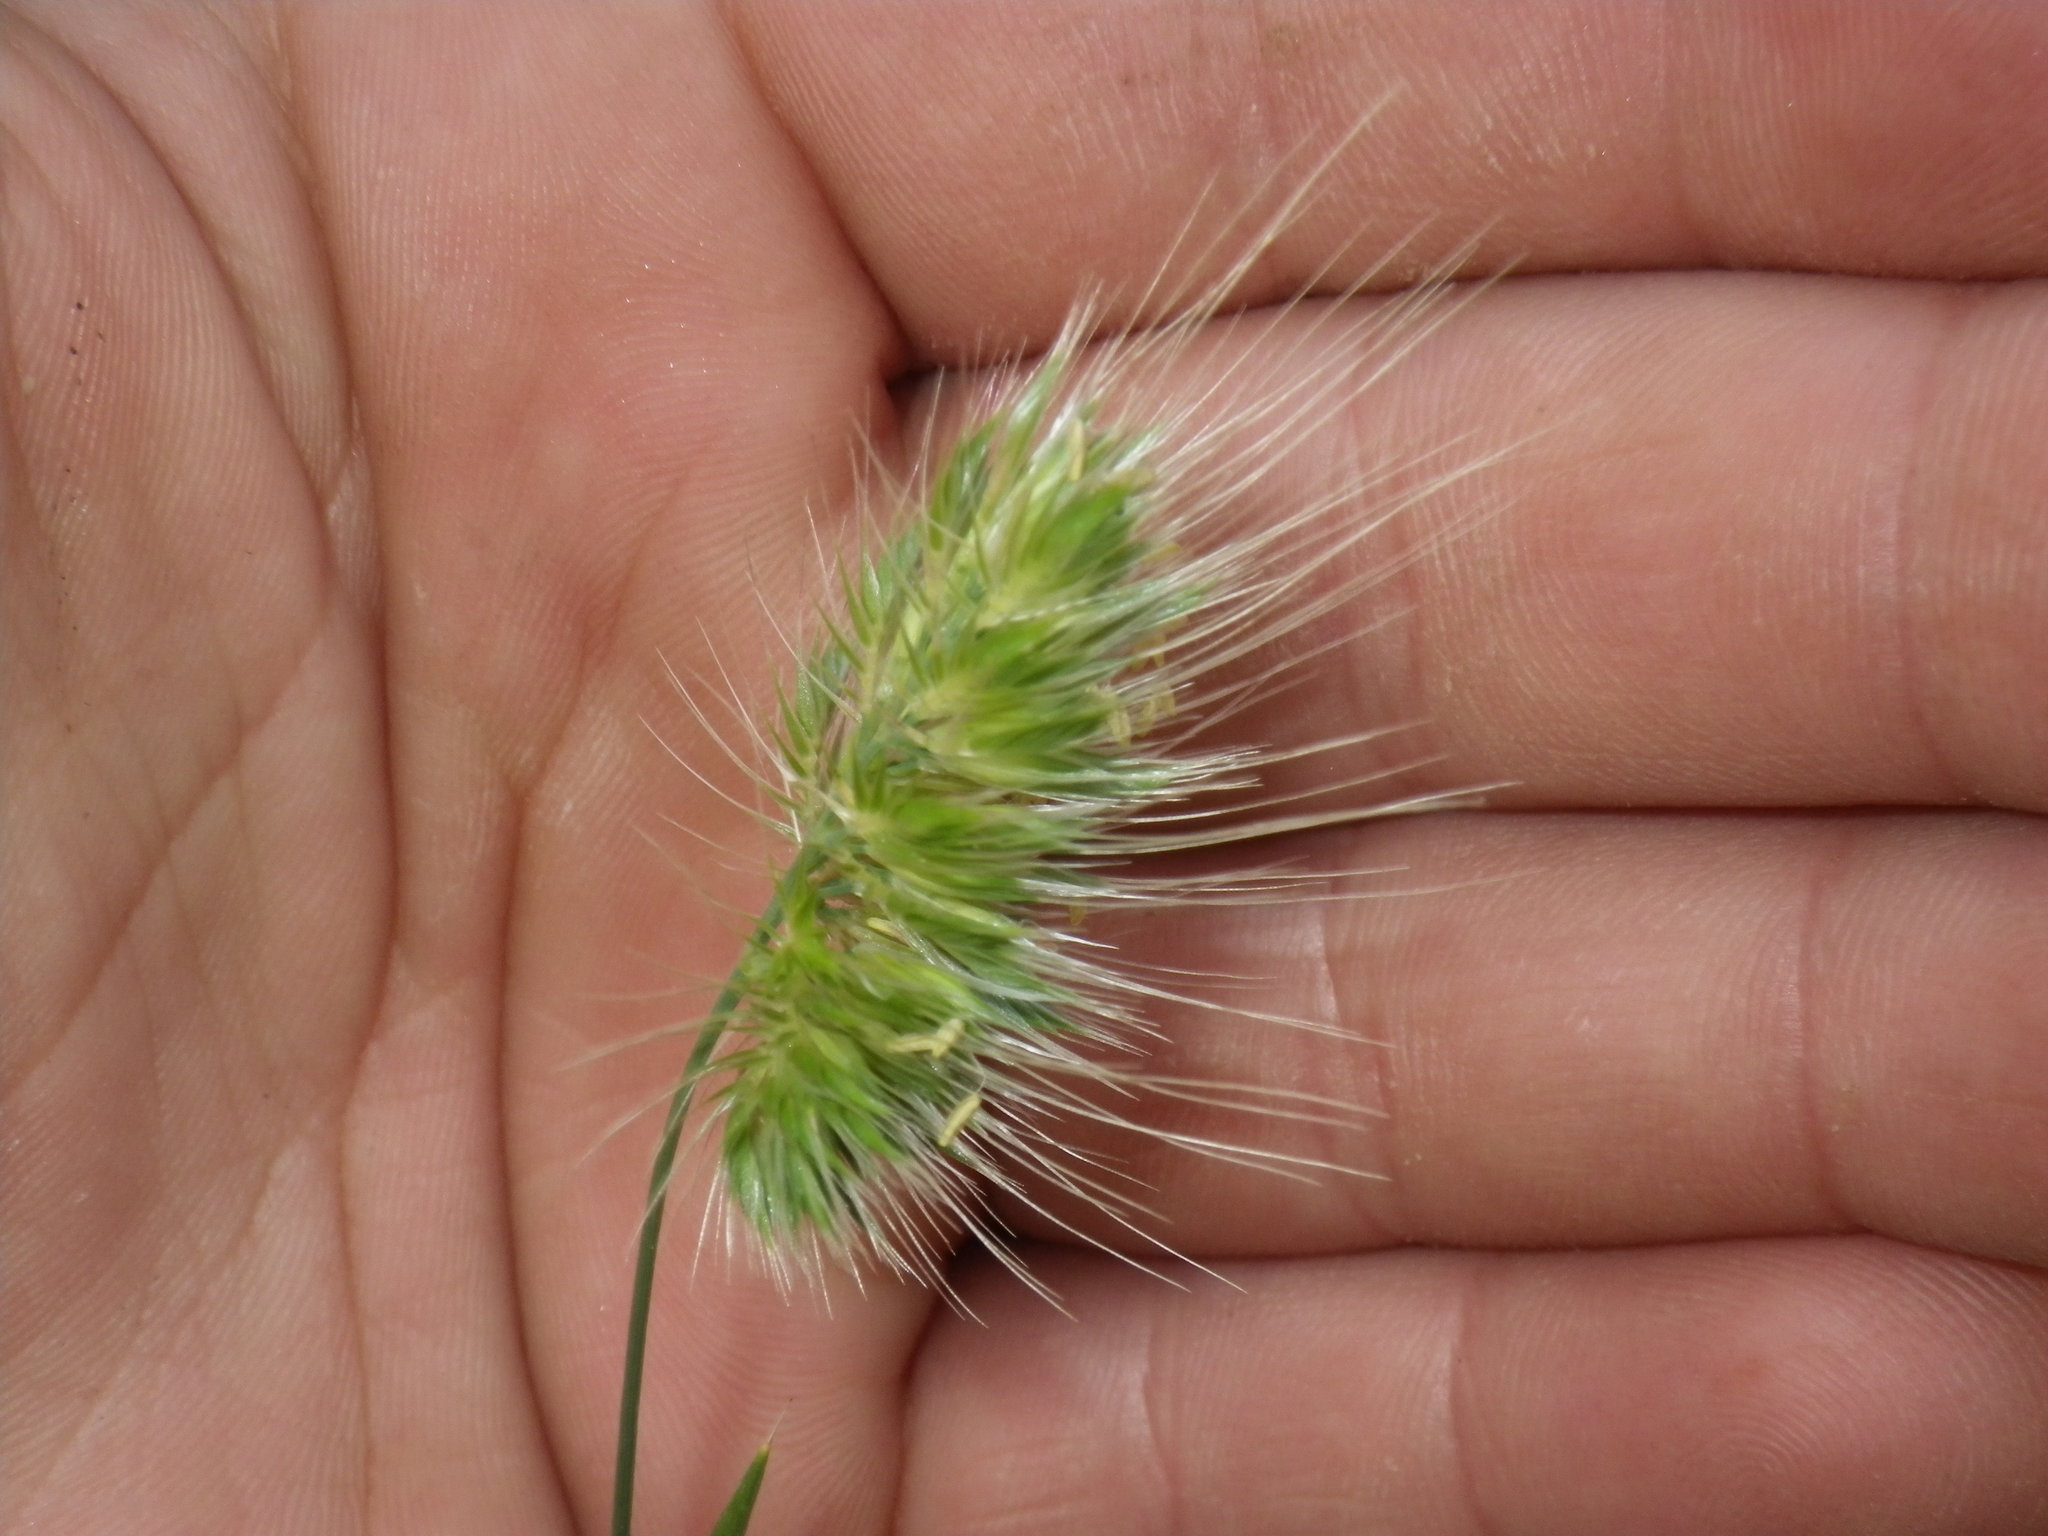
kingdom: Plantae
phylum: Tracheophyta
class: Liliopsida
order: Poales
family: Poaceae
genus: Cynosurus
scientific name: Cynosurus echinatus
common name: Rough dog's-tail
